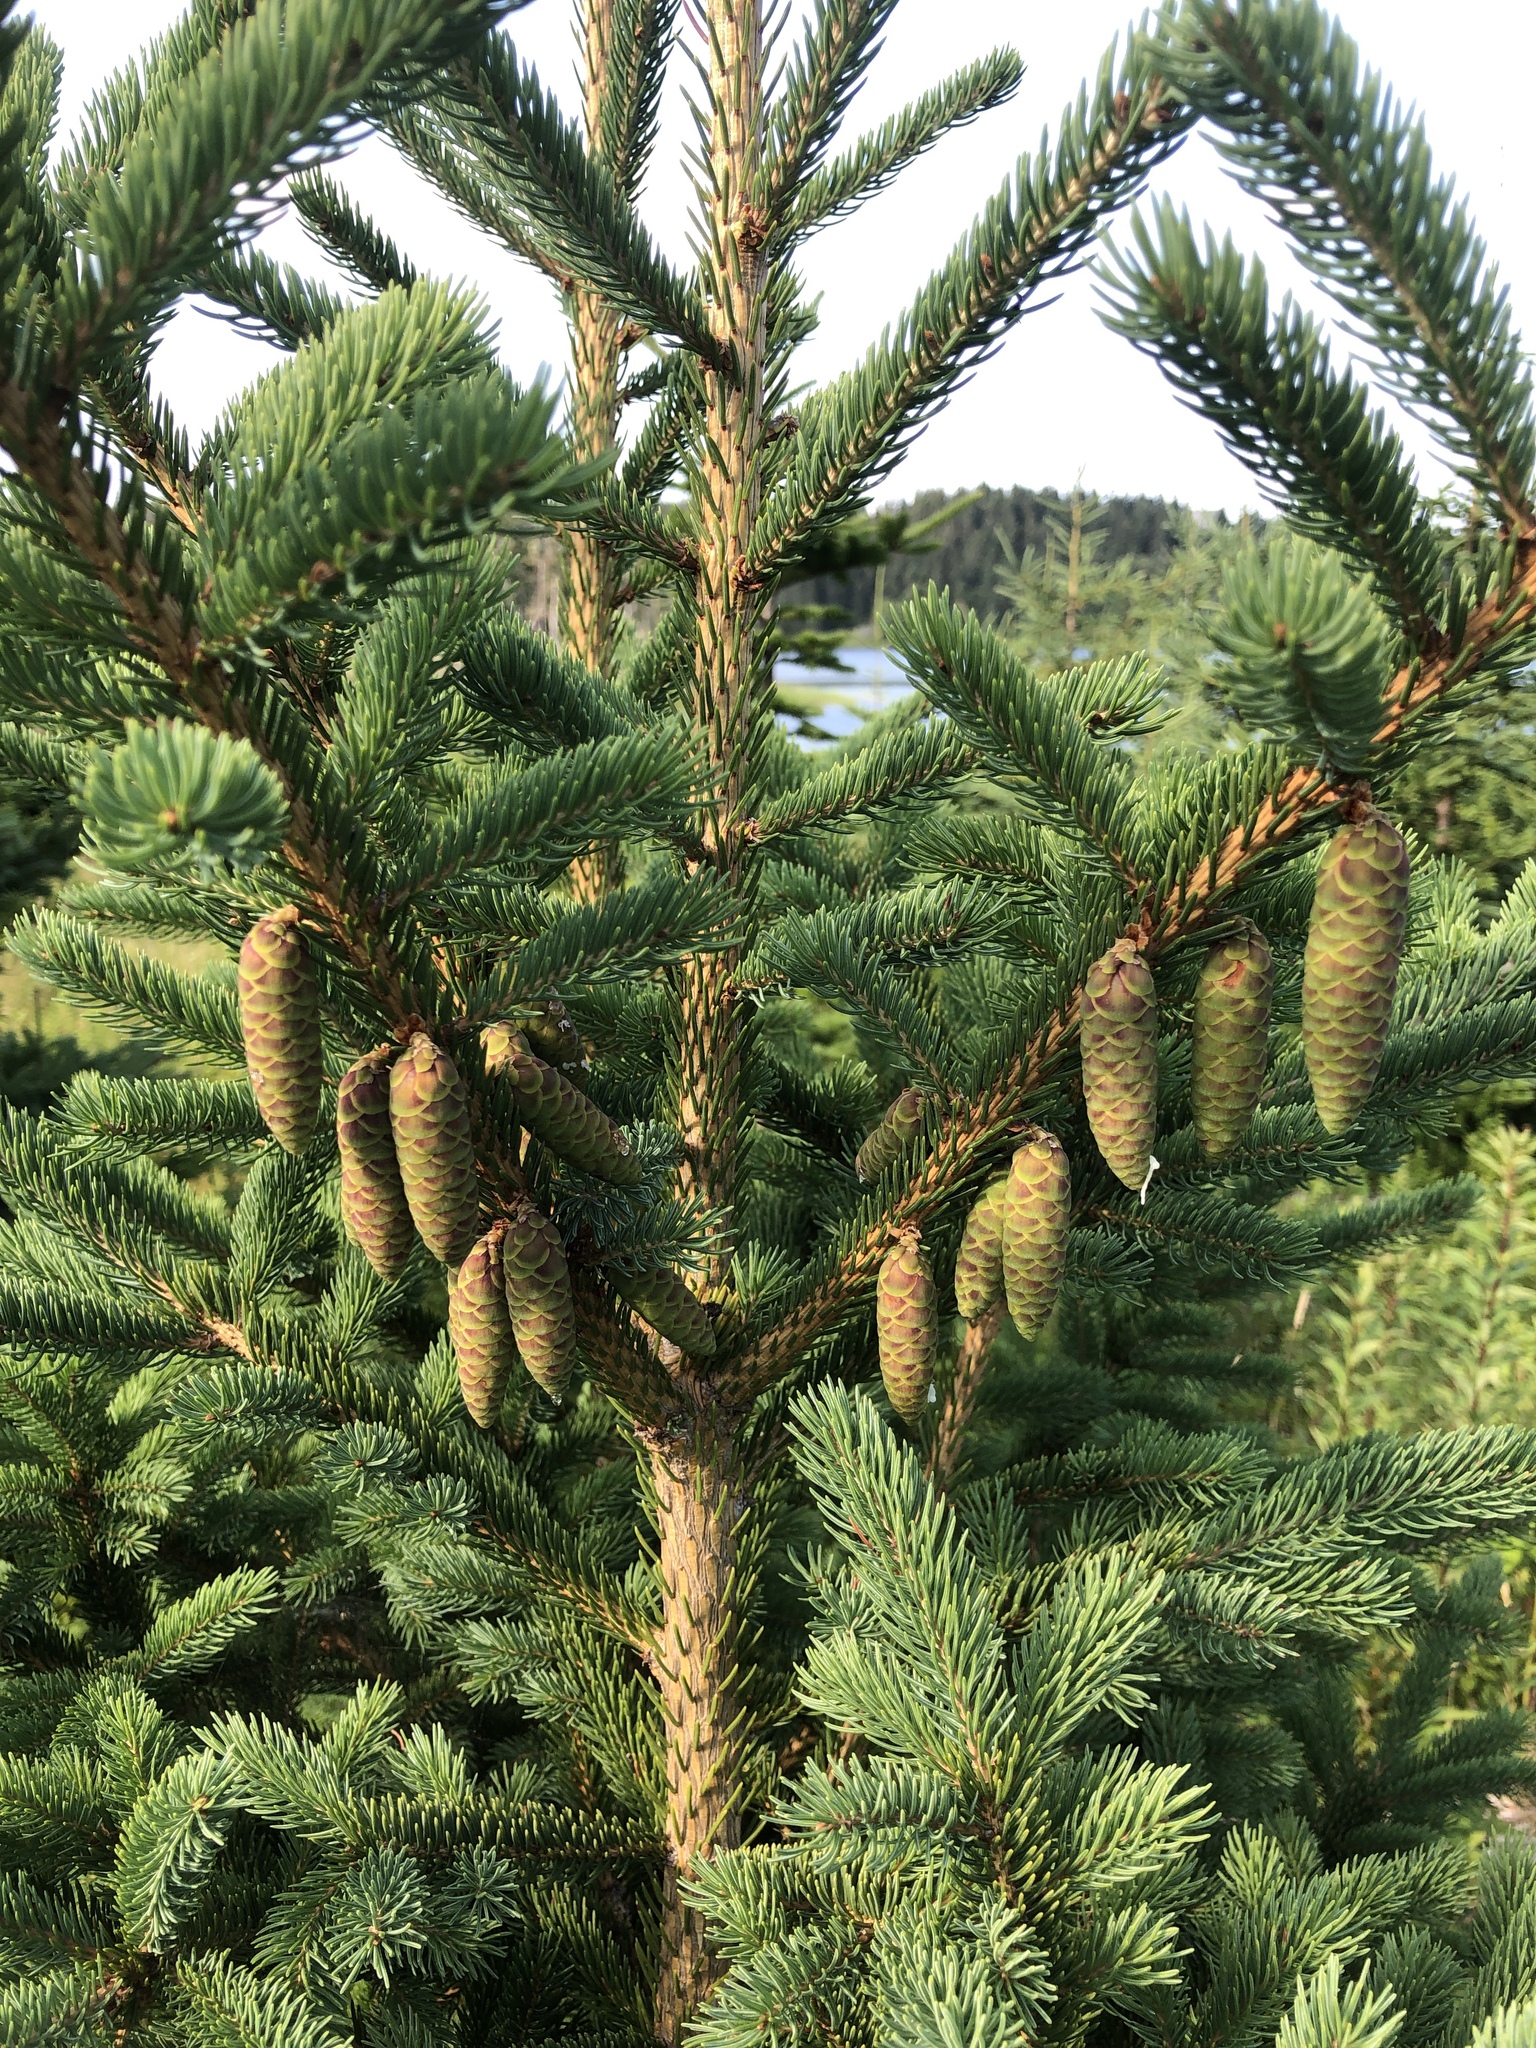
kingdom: Plantae
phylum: Tracheophyta
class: Pinopsida
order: Pinales
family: Pinaceae
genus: Picea
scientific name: Picea glauca
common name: White spruce
